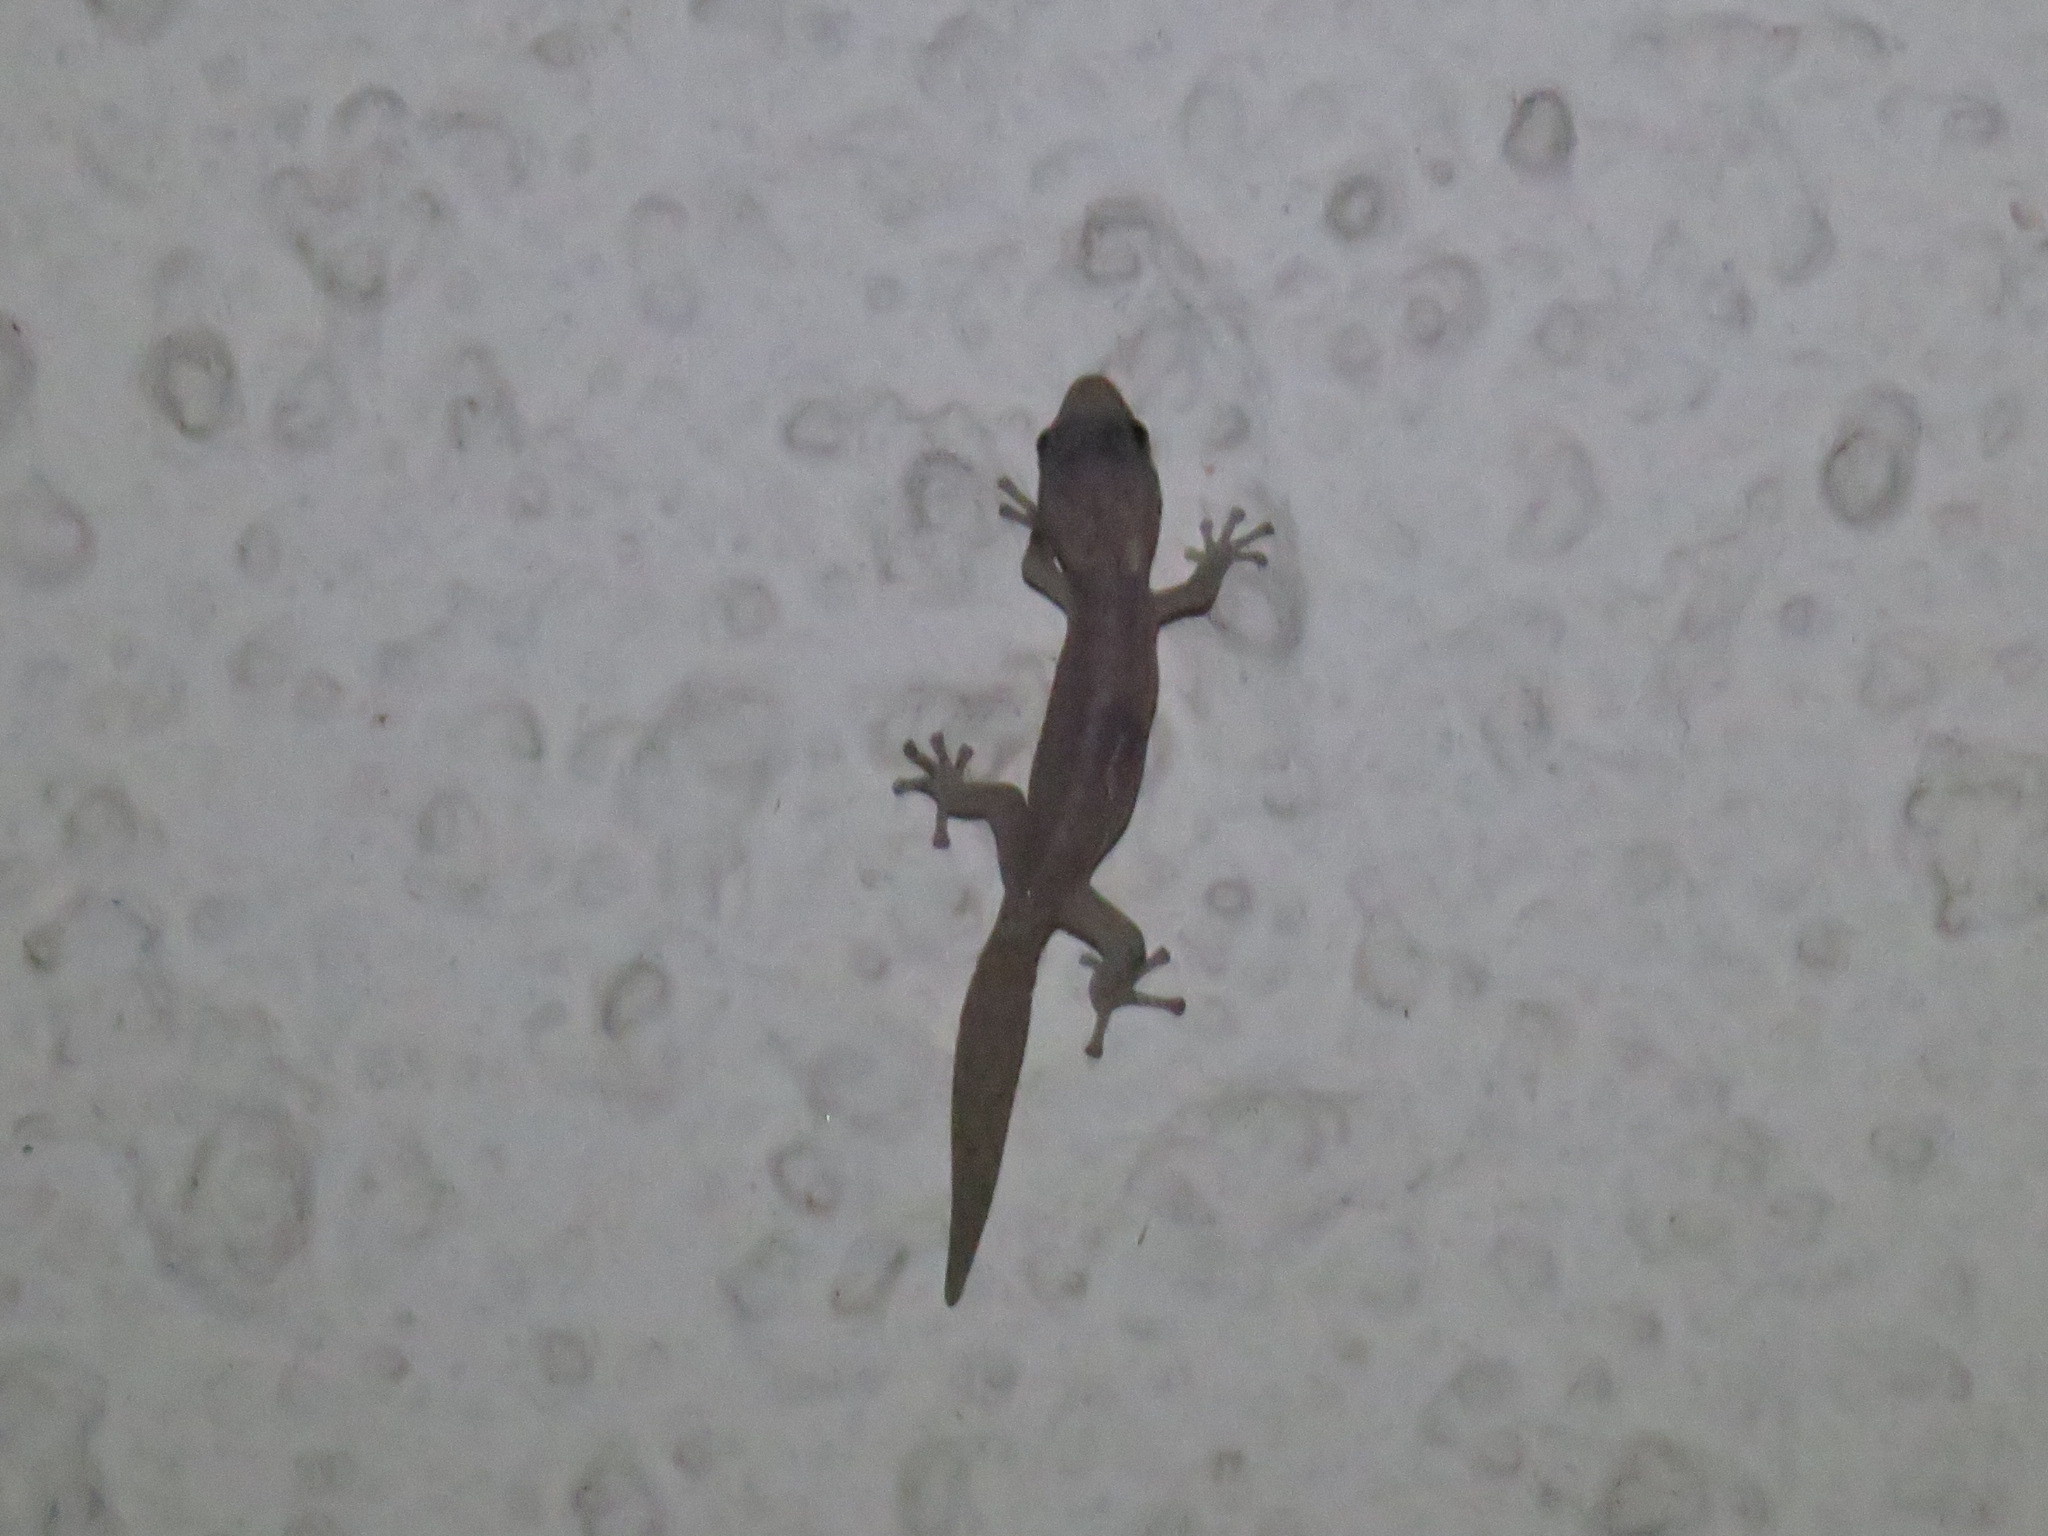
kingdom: Animalia
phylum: Chordata
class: Squamata
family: Gekkonidae
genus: Afrogecko
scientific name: Afrogecko porphyreus
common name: Marbled leaf-toed gecko
